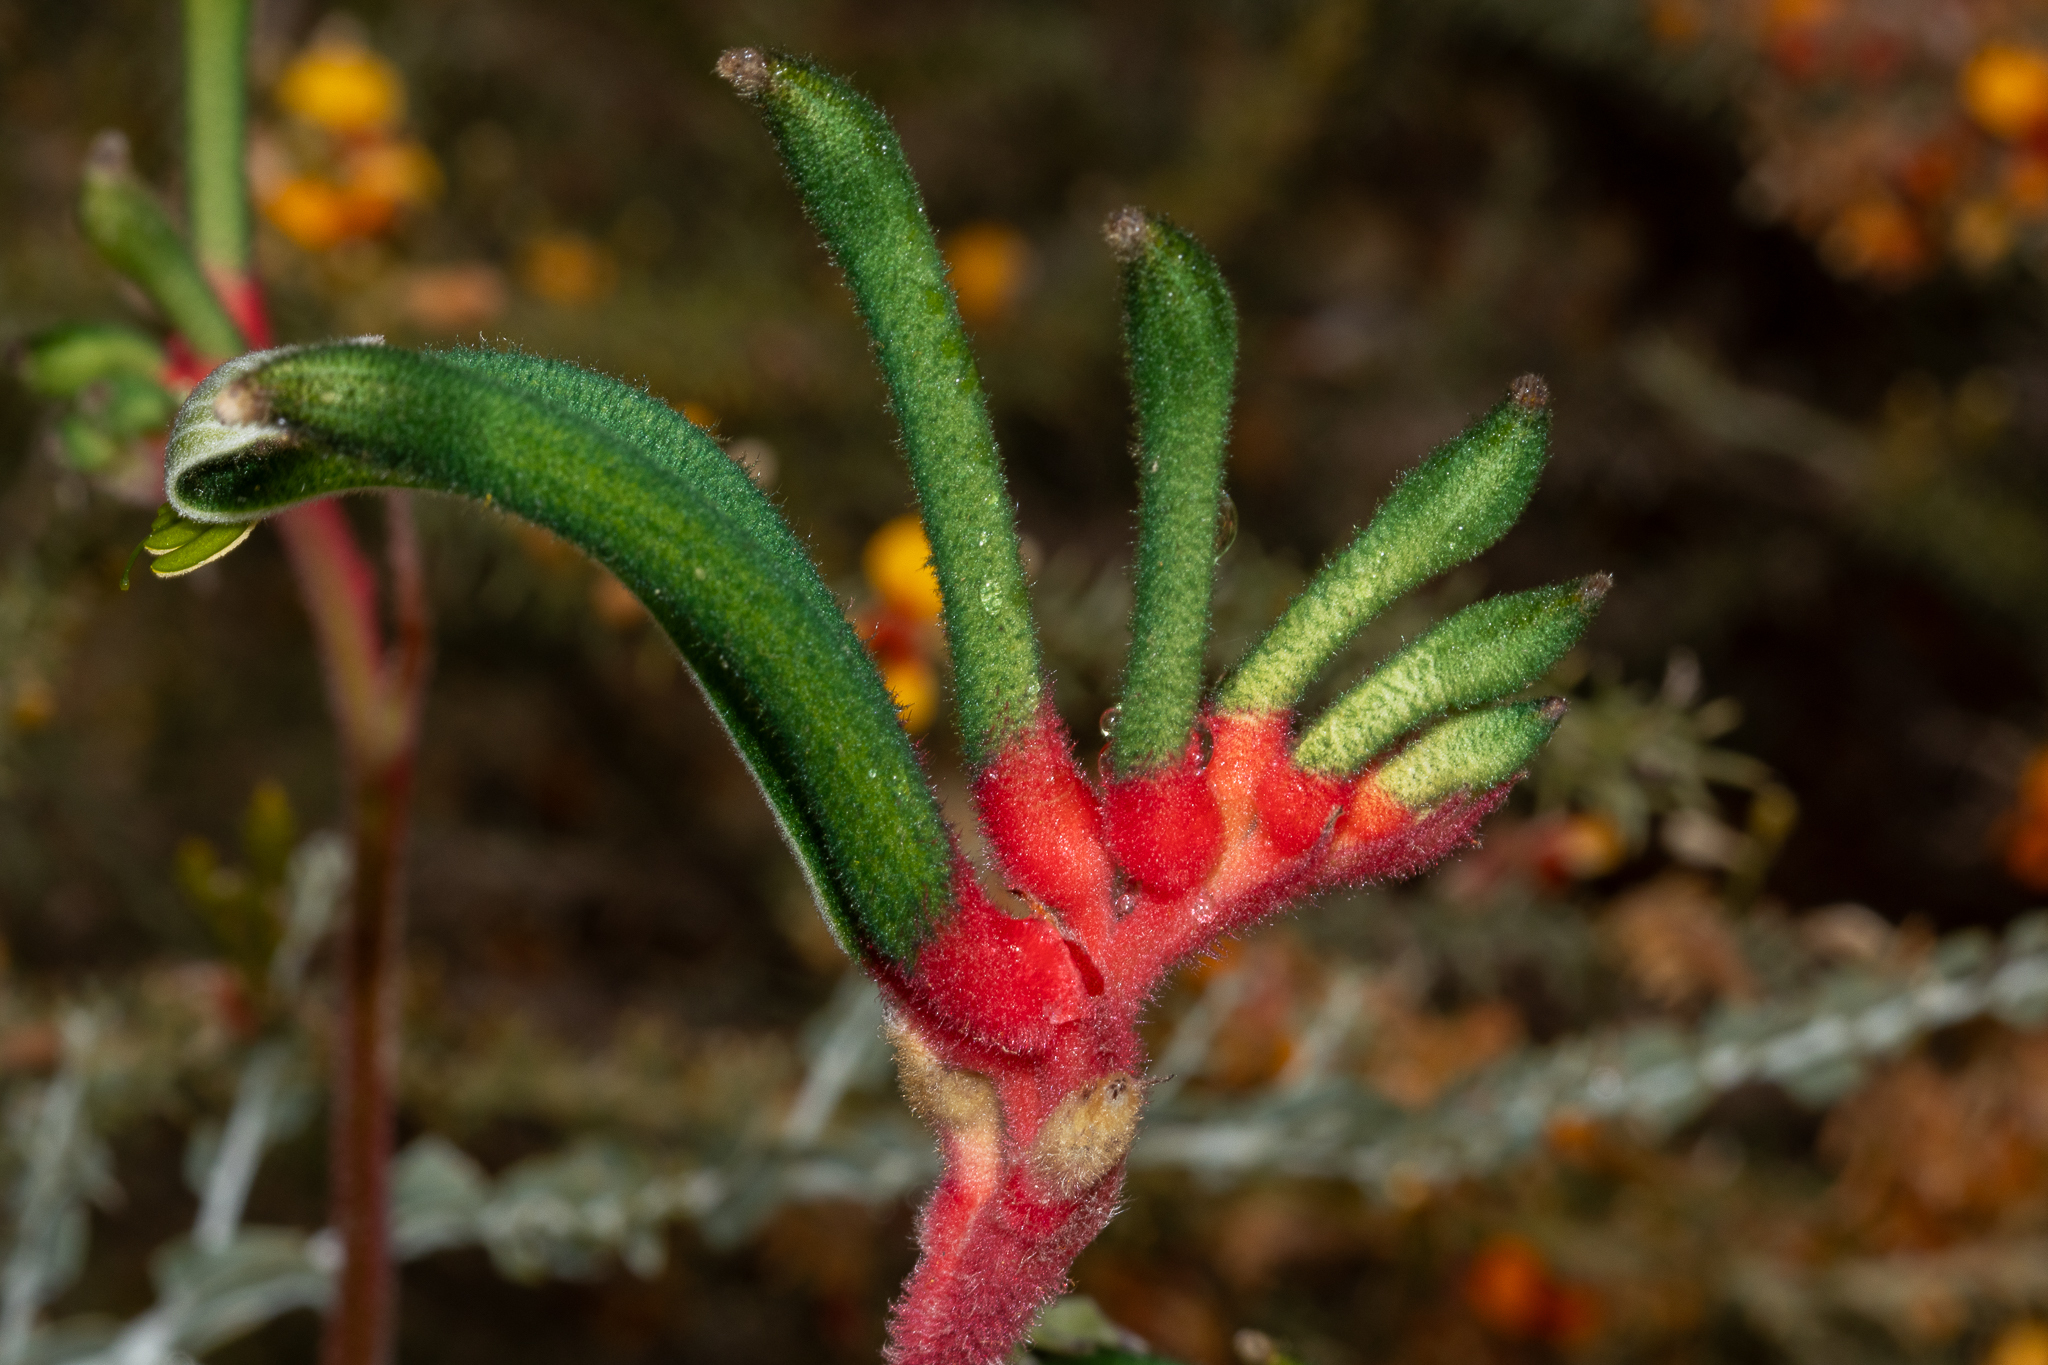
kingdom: Plantae
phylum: Tracheophyta
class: Liliopsida
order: Commelinales
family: Haemodoraceae
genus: Anigozanthos
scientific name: Anigozanthos manglesii
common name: Mangles's kangaroo-paw
